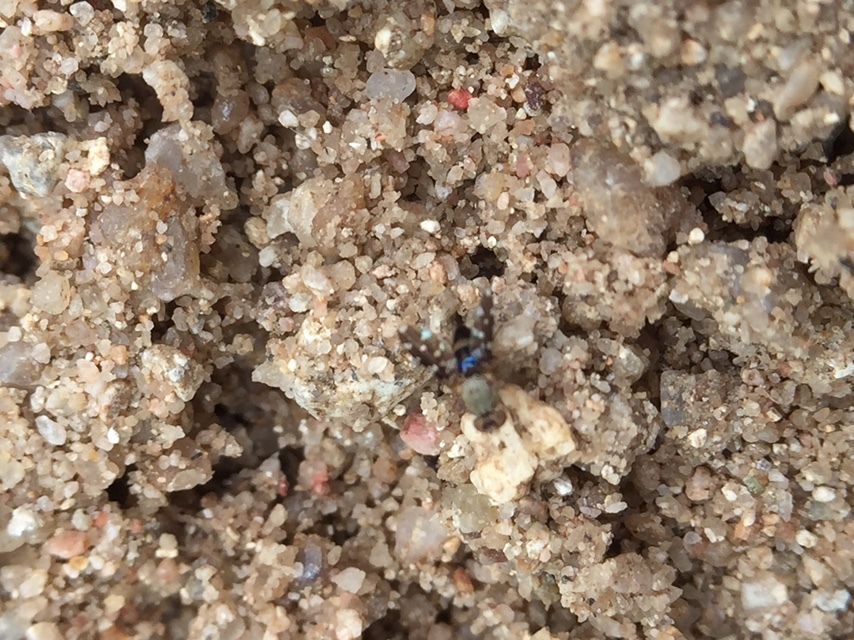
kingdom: Animalia
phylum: Arthropoda
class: Insecta
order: Diptera
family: Ephydridae
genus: Actocetor
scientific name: Actocetor indicus
